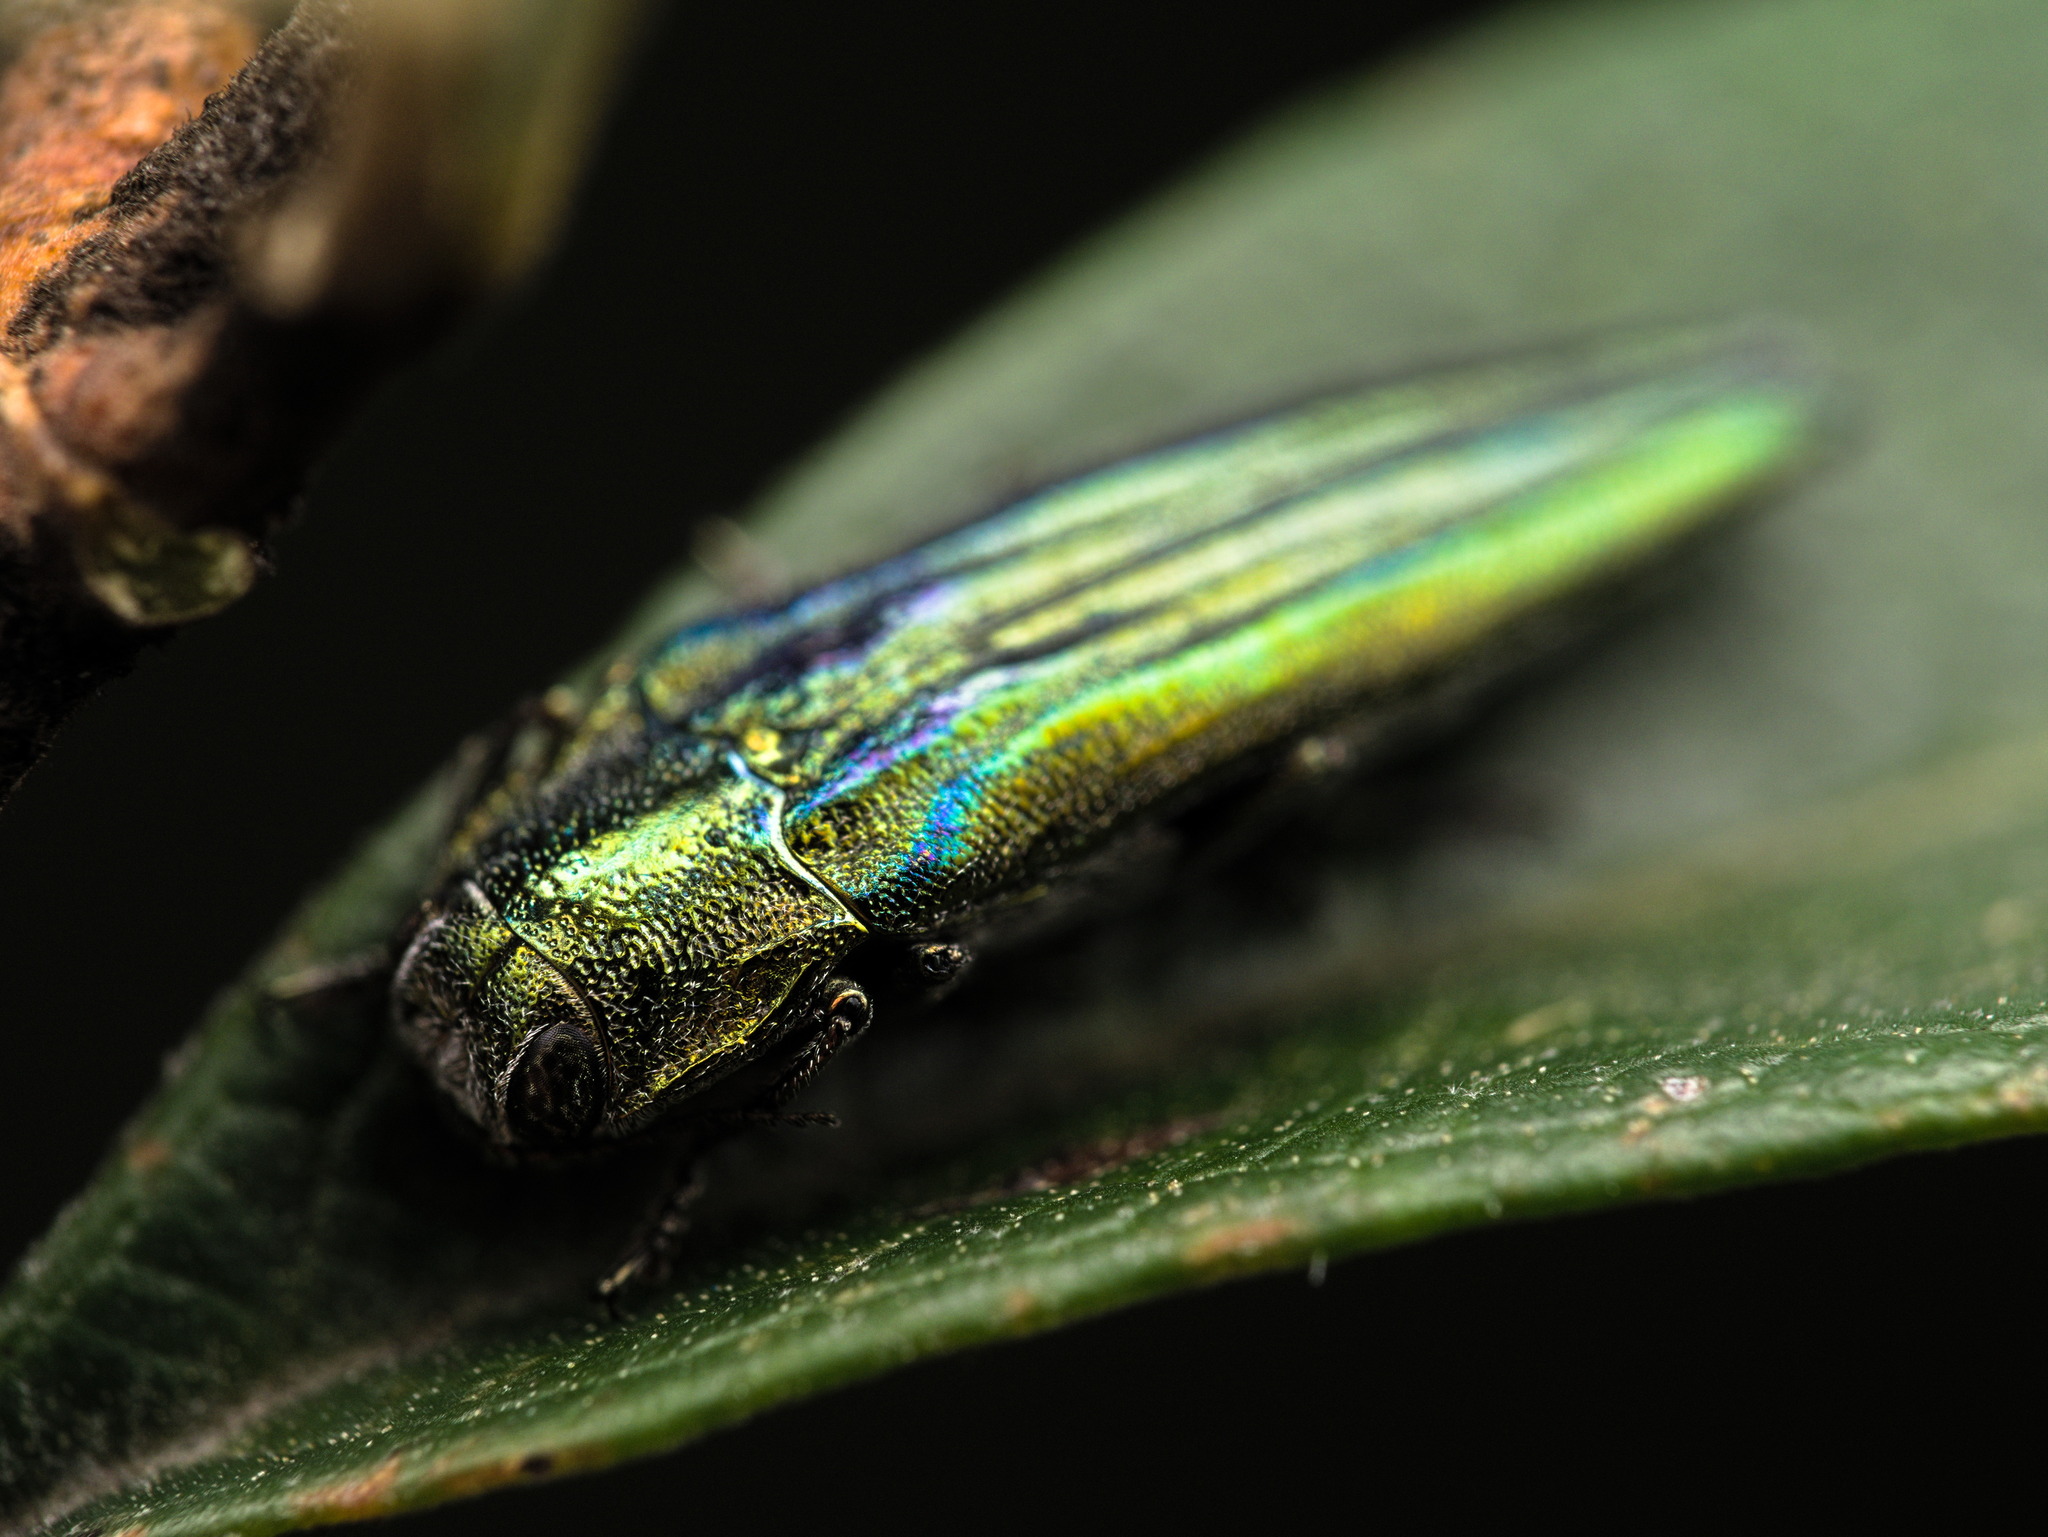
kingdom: Animalia
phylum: Arthropoda
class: Insecta
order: Coleoptera
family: Buprestidae
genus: Agrilus
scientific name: Agrilus sulcatulus
